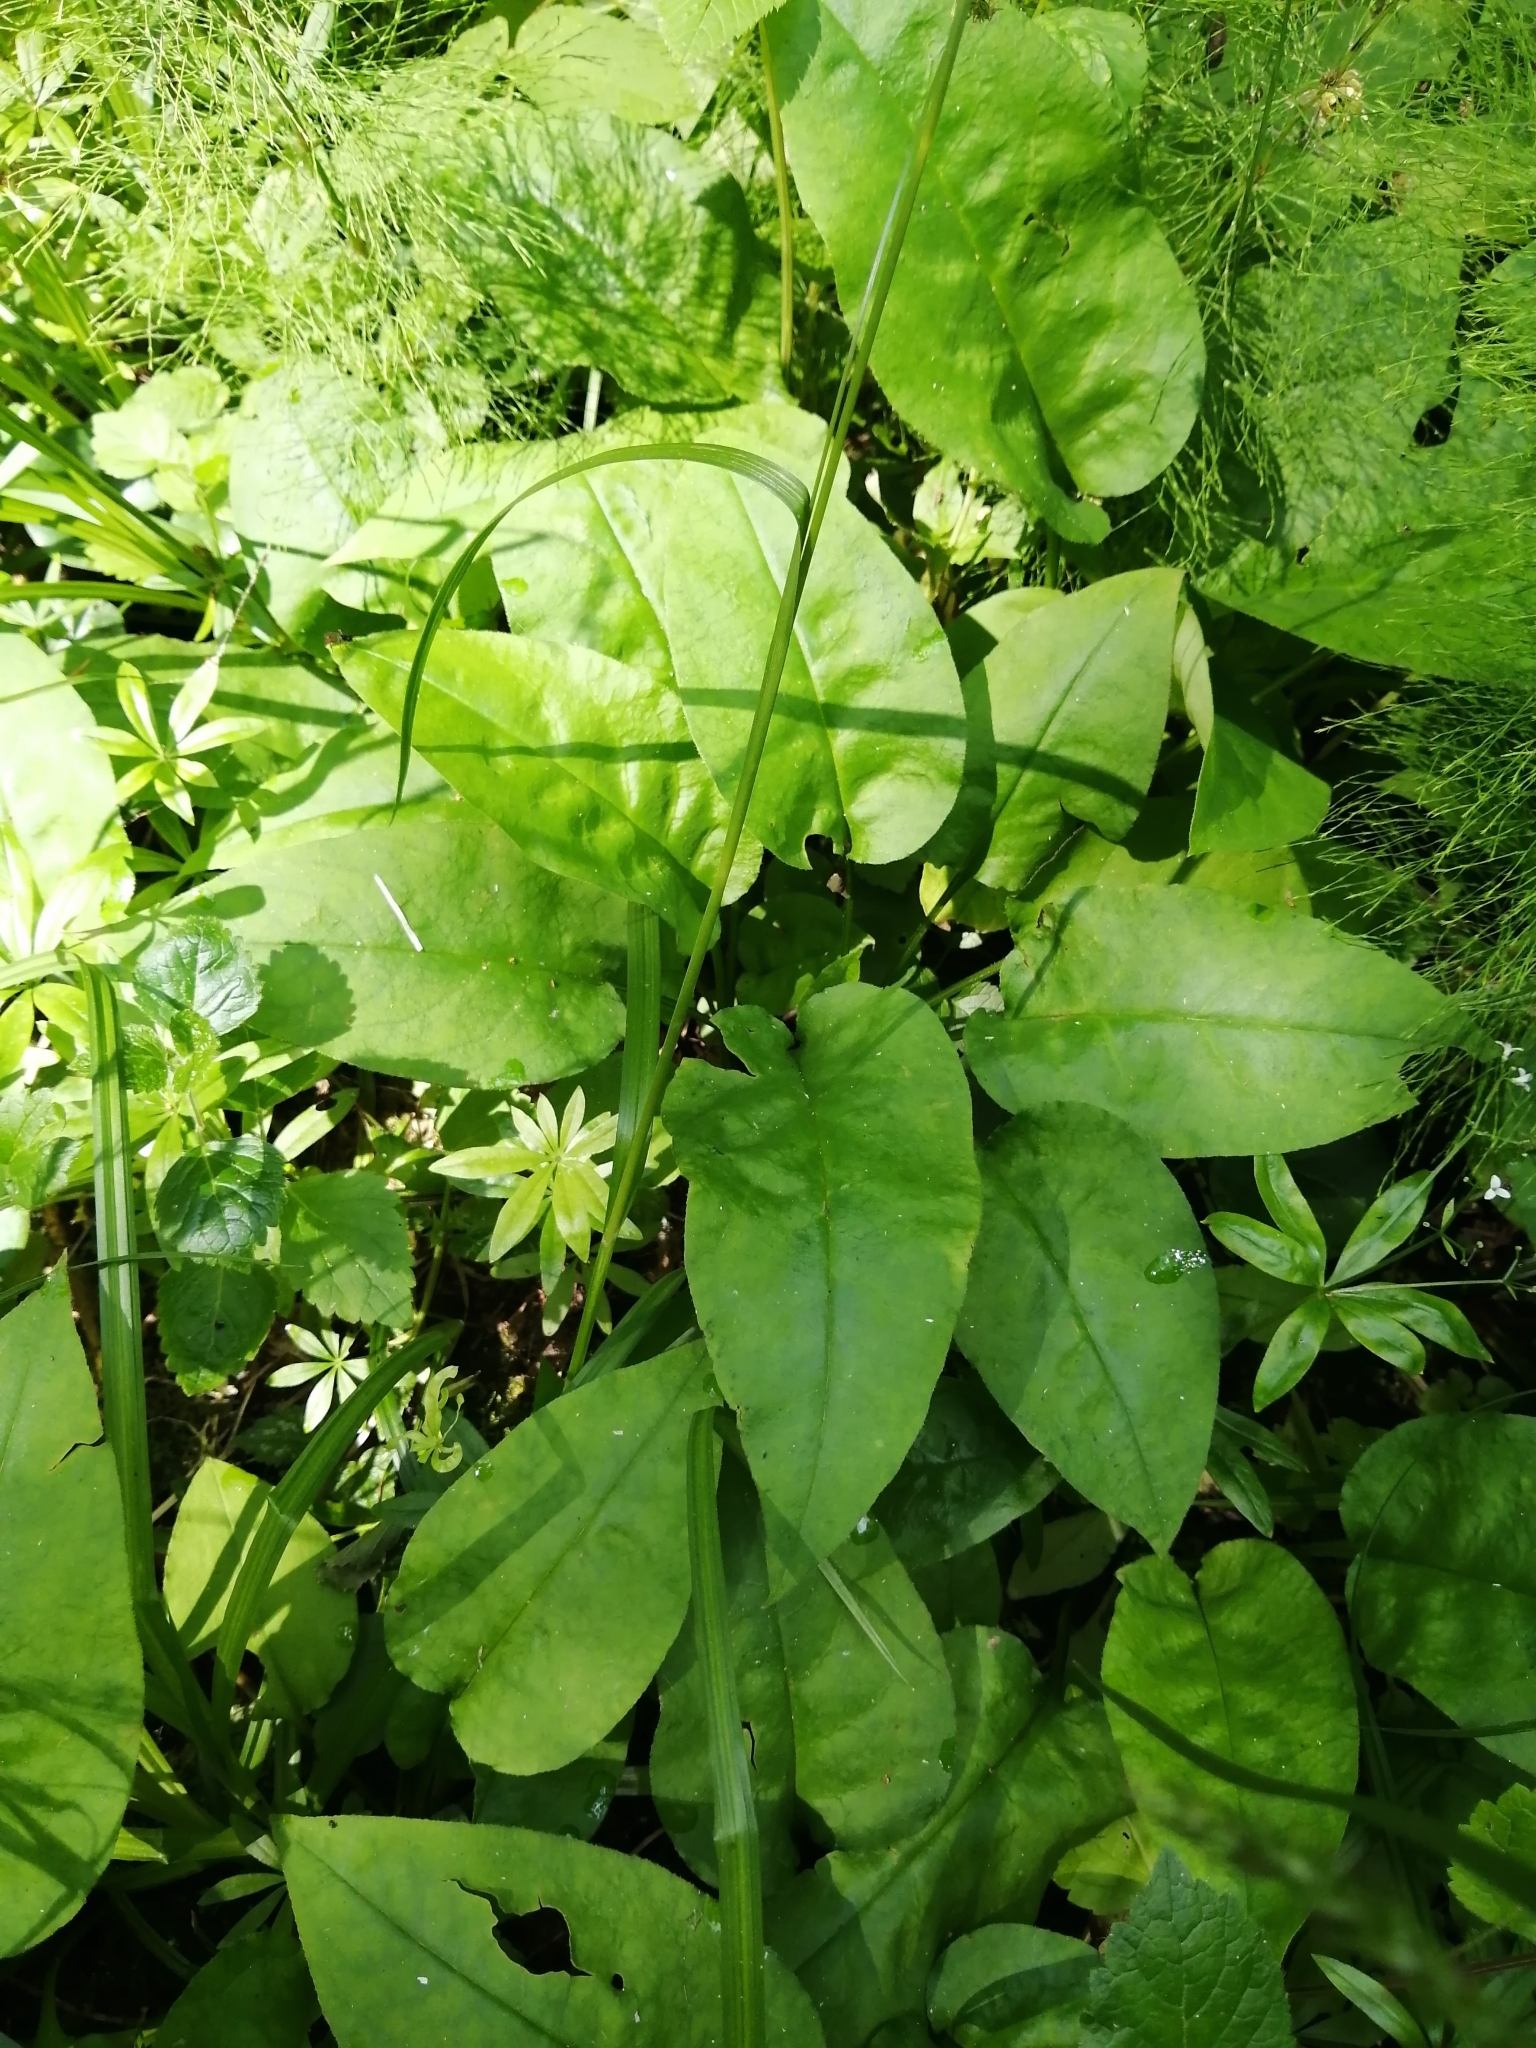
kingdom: Plantae
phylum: Tracheophyta
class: Magnoliopsida
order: Boraginales
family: Boraginaceae
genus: Pulmonaria
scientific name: Pulmonaria obscura
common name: Suffolk lungwort
